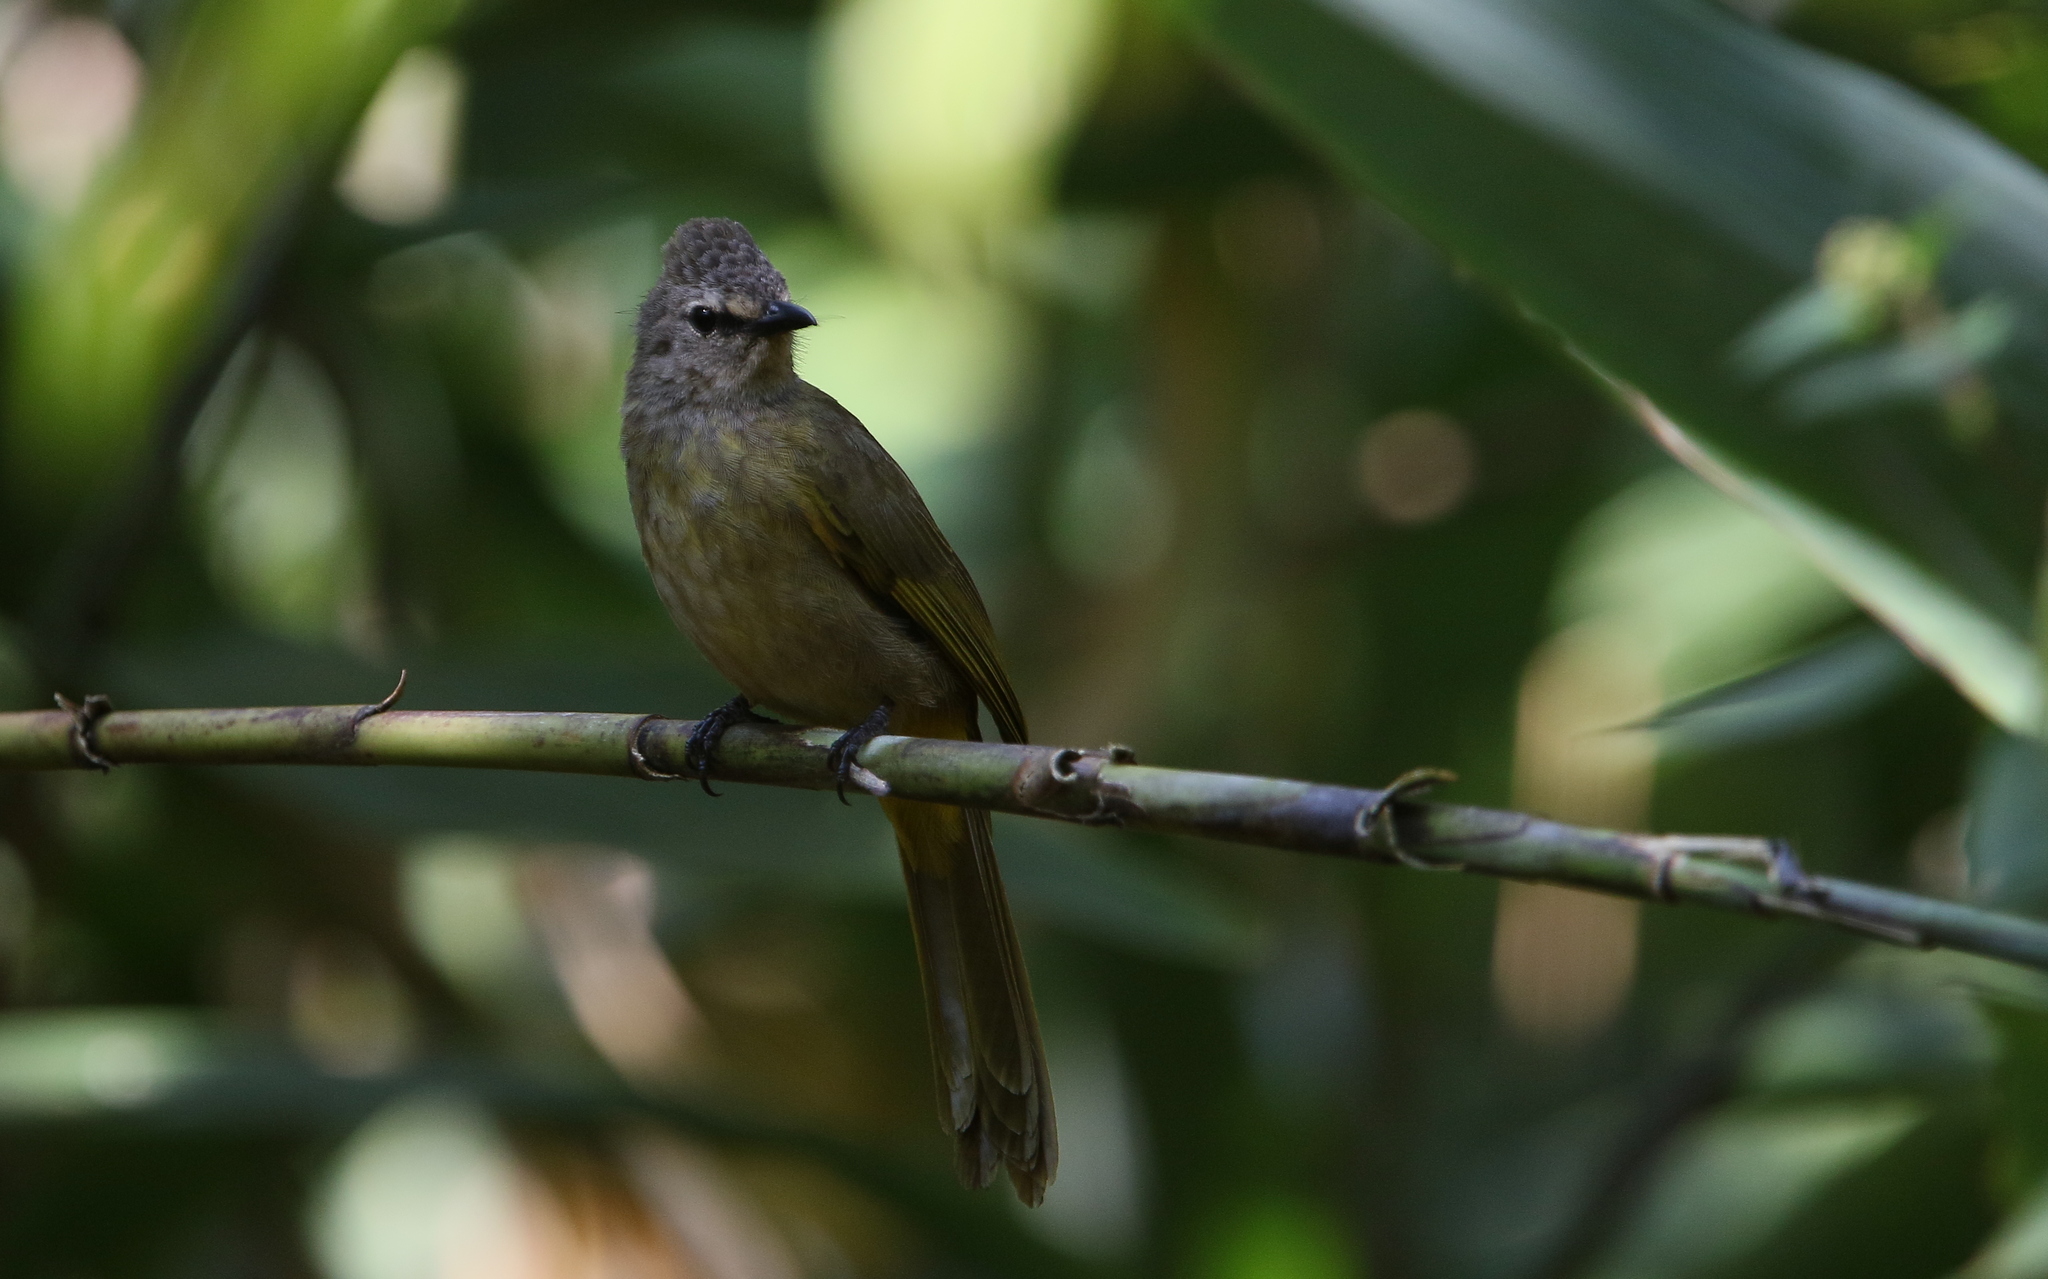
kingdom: Animalia
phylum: Chordata
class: Aves
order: Passeriformes
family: Pycnonotidae
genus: Pycnonotus
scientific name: Pycnonotus flavescens
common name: Flavescent bulbul
